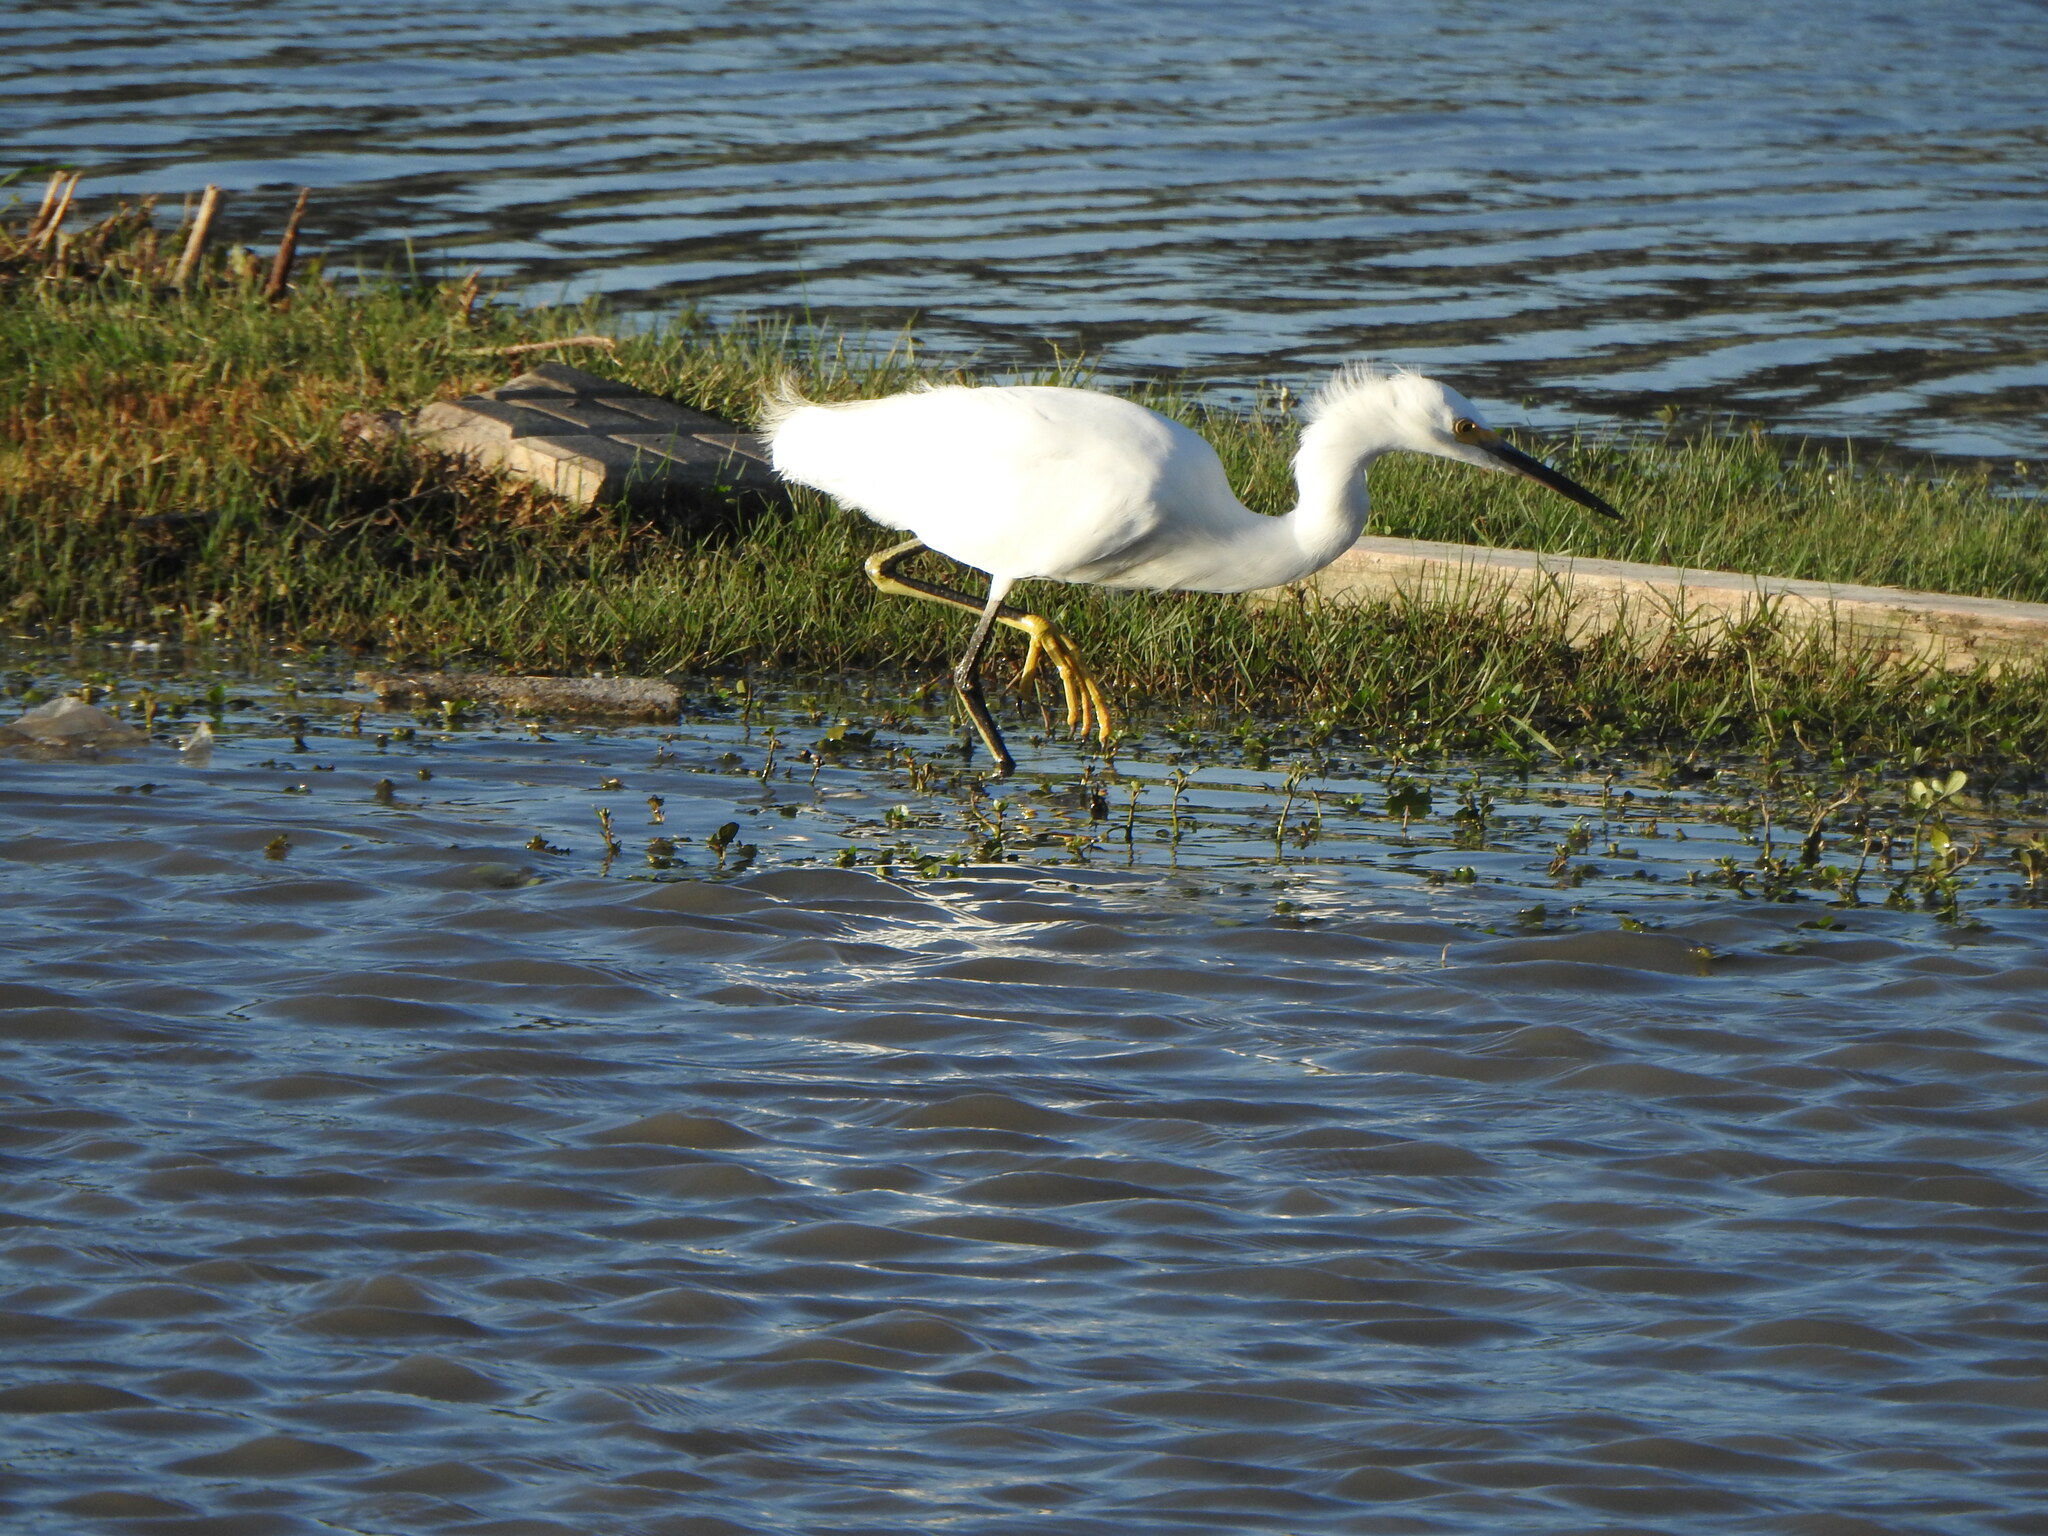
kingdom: Animalia
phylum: Chordata
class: Aves
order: Pelecaniformes
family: Ardeidae
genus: Egretta
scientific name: Egretta thula
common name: Snowy egret
